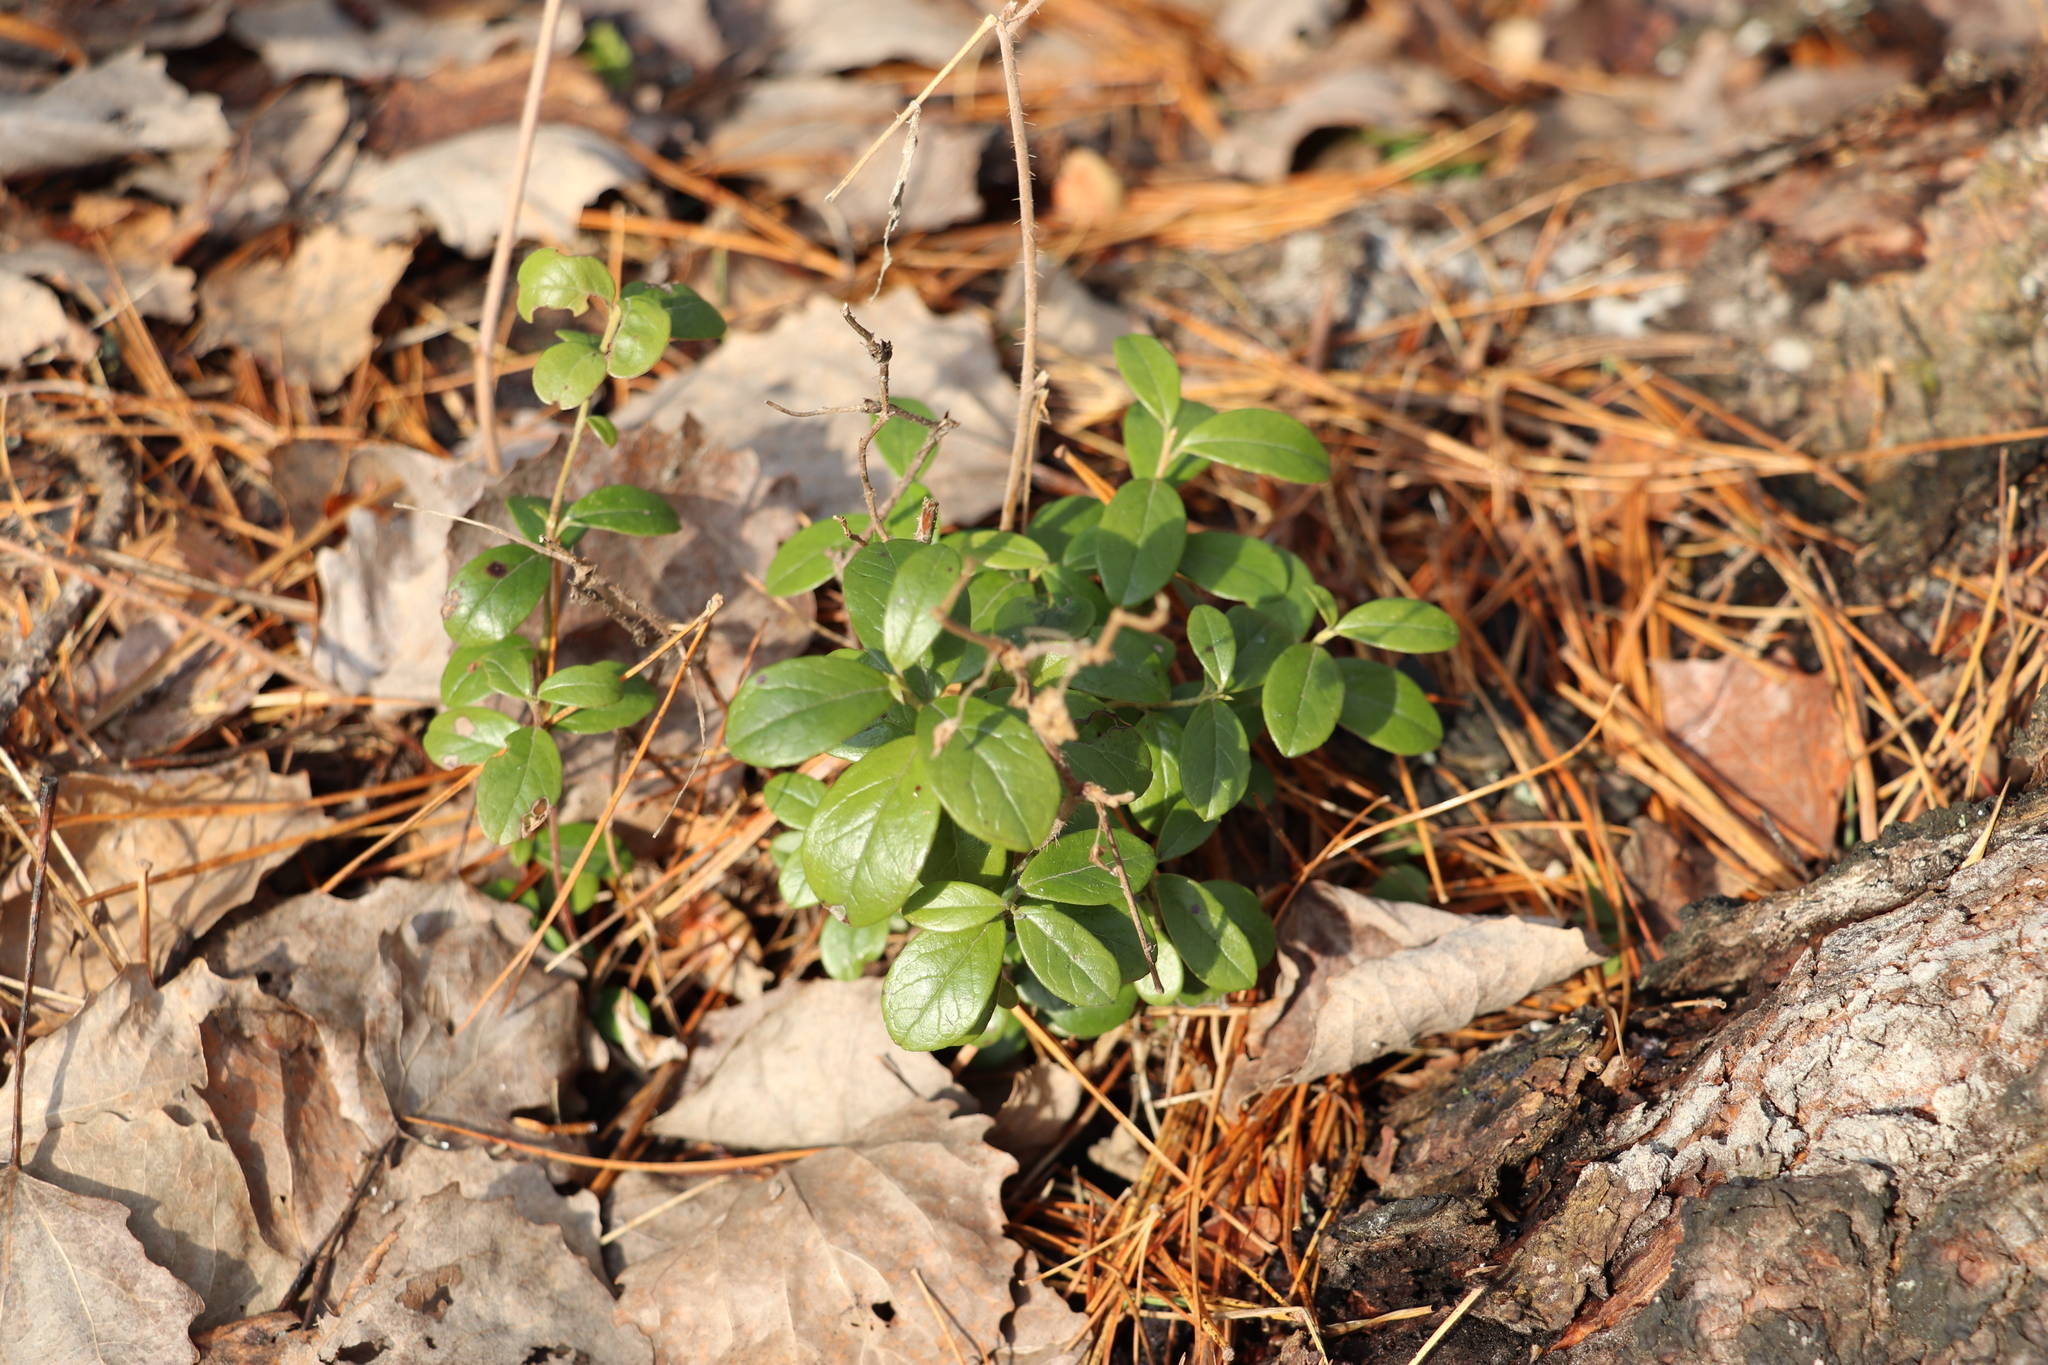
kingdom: Plantae
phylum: Tracheophyta
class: Magnoliopsida
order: Ericales
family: Ericaceae
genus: Vaccinium
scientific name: Vaccinium vitis-idaea
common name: Cowberry
